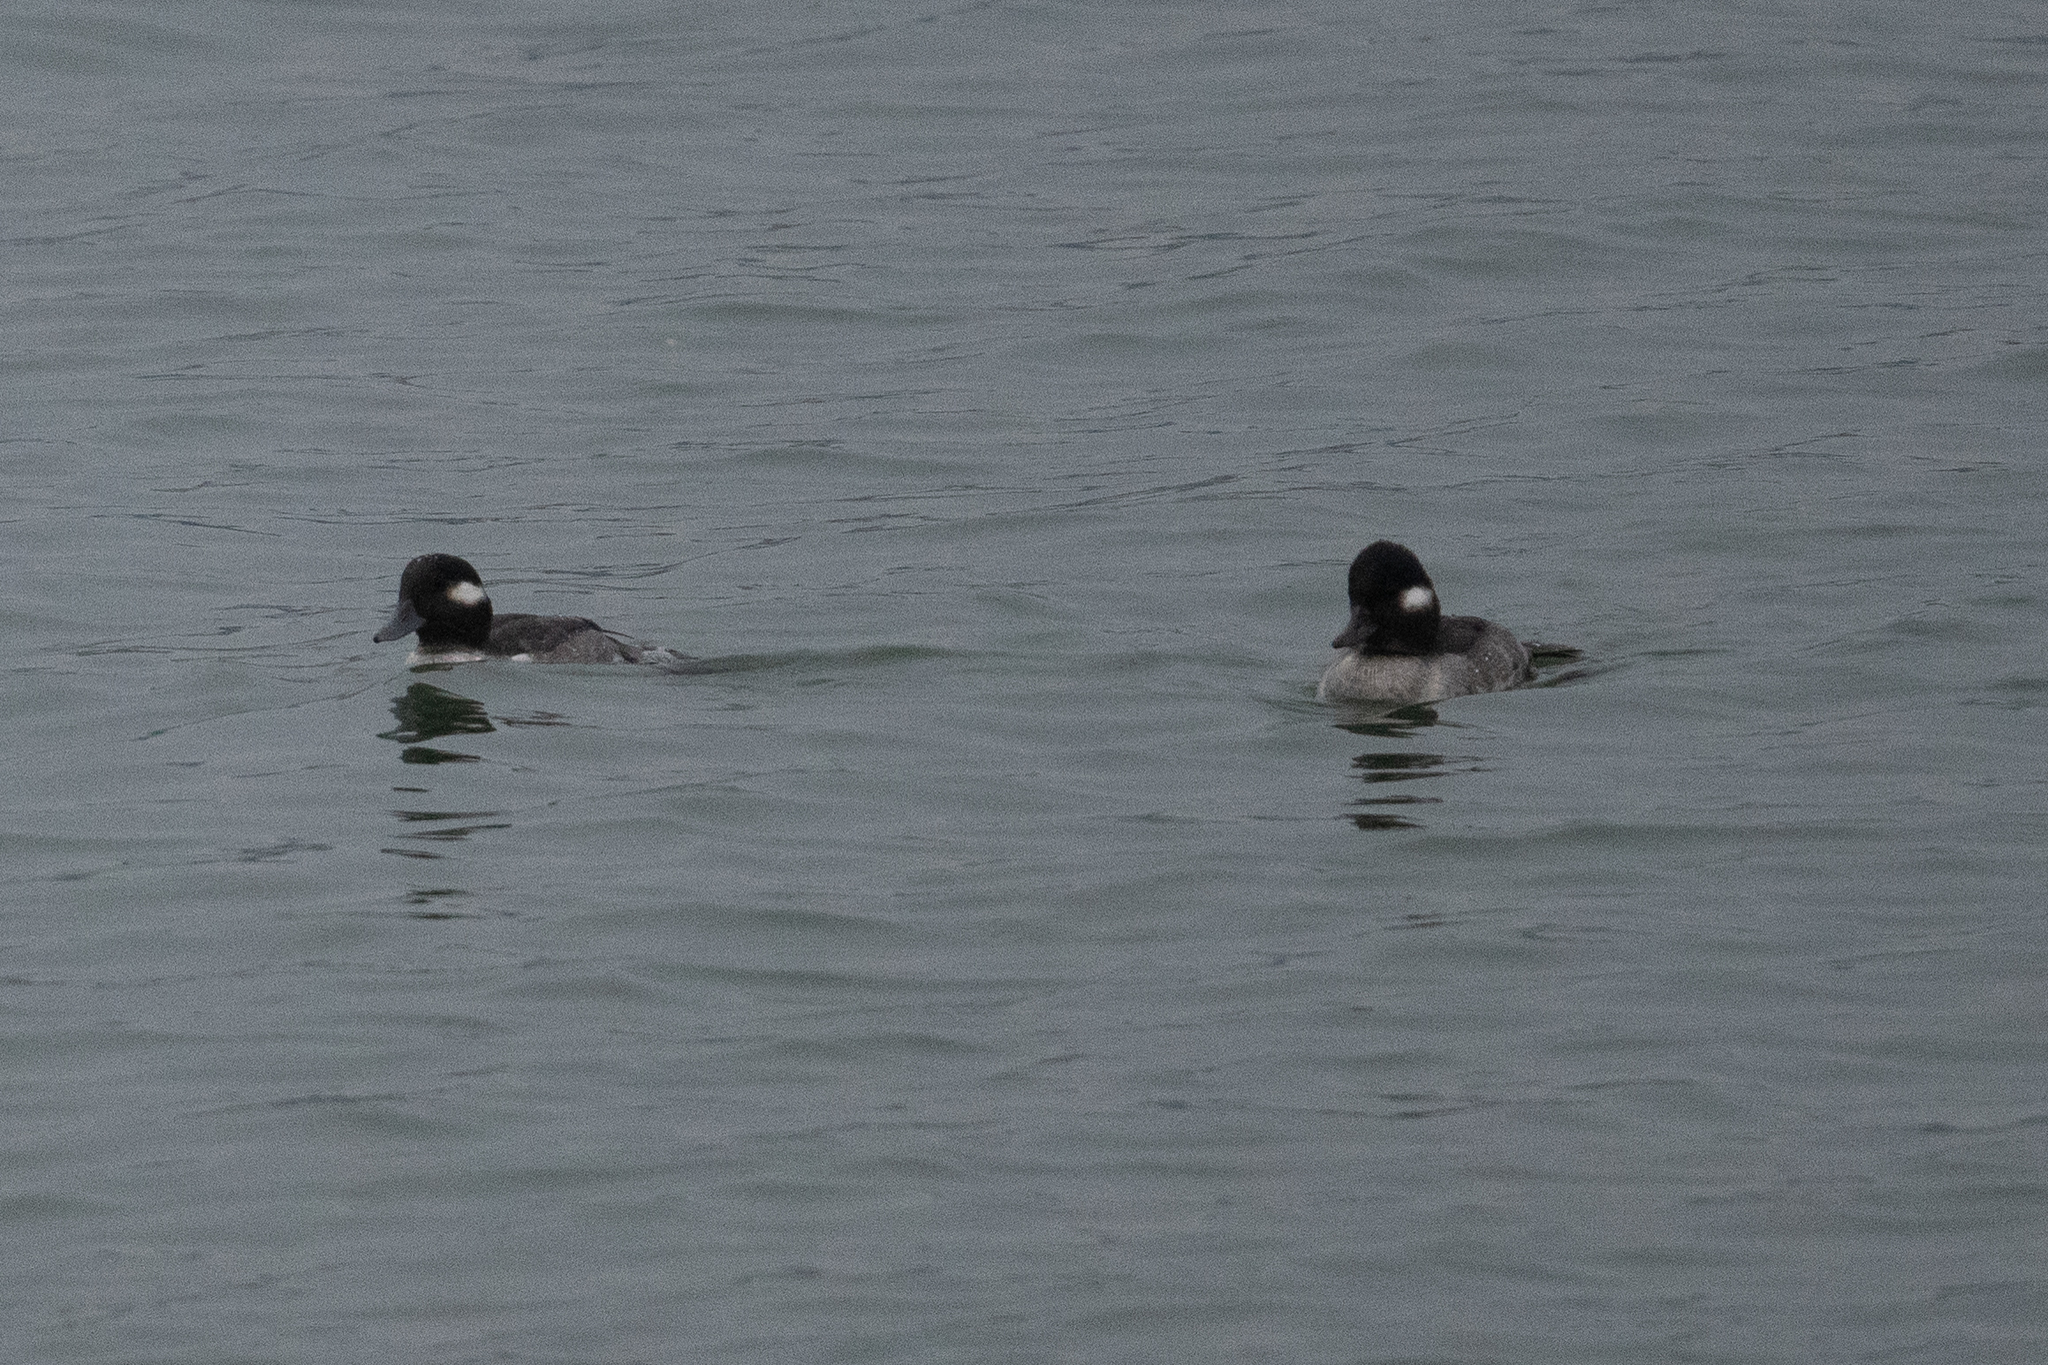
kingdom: Animalia
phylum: Chordata
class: Aves
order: Anseriformes
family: Anatidae
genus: Bucephala
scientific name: Bucephala albeola
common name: Bufflehead
